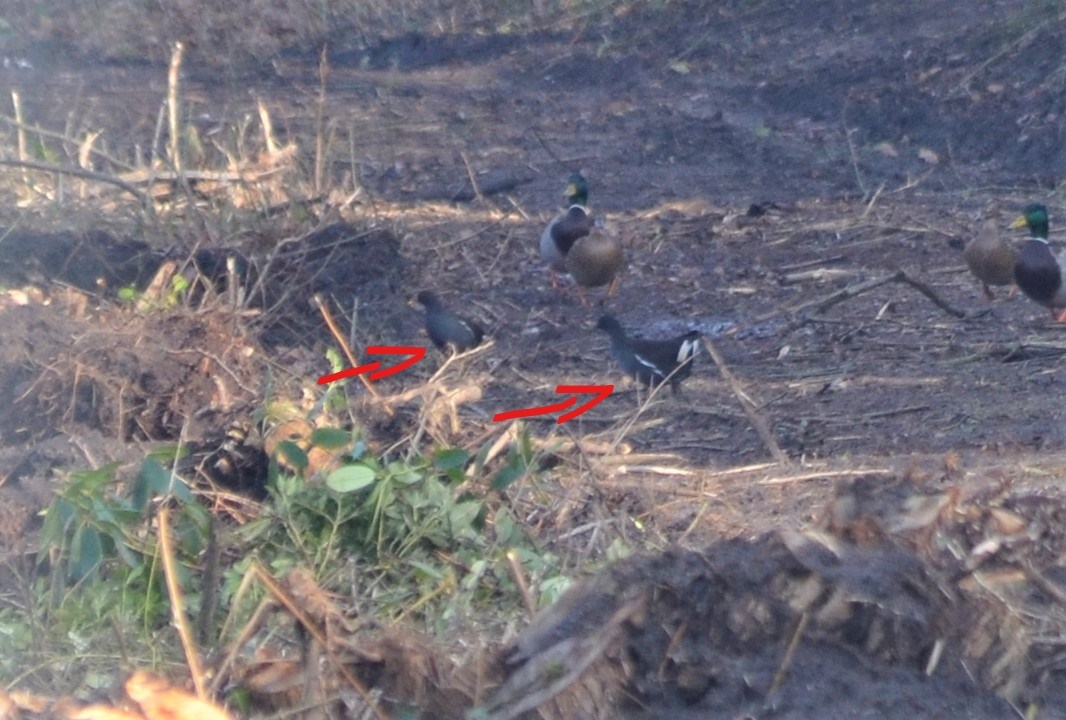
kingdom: Animalia
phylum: Chordata
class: Aves
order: Gruiformes
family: Rallidae
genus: Gallinula
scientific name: Gallinula chloropus
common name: Common moorhen
